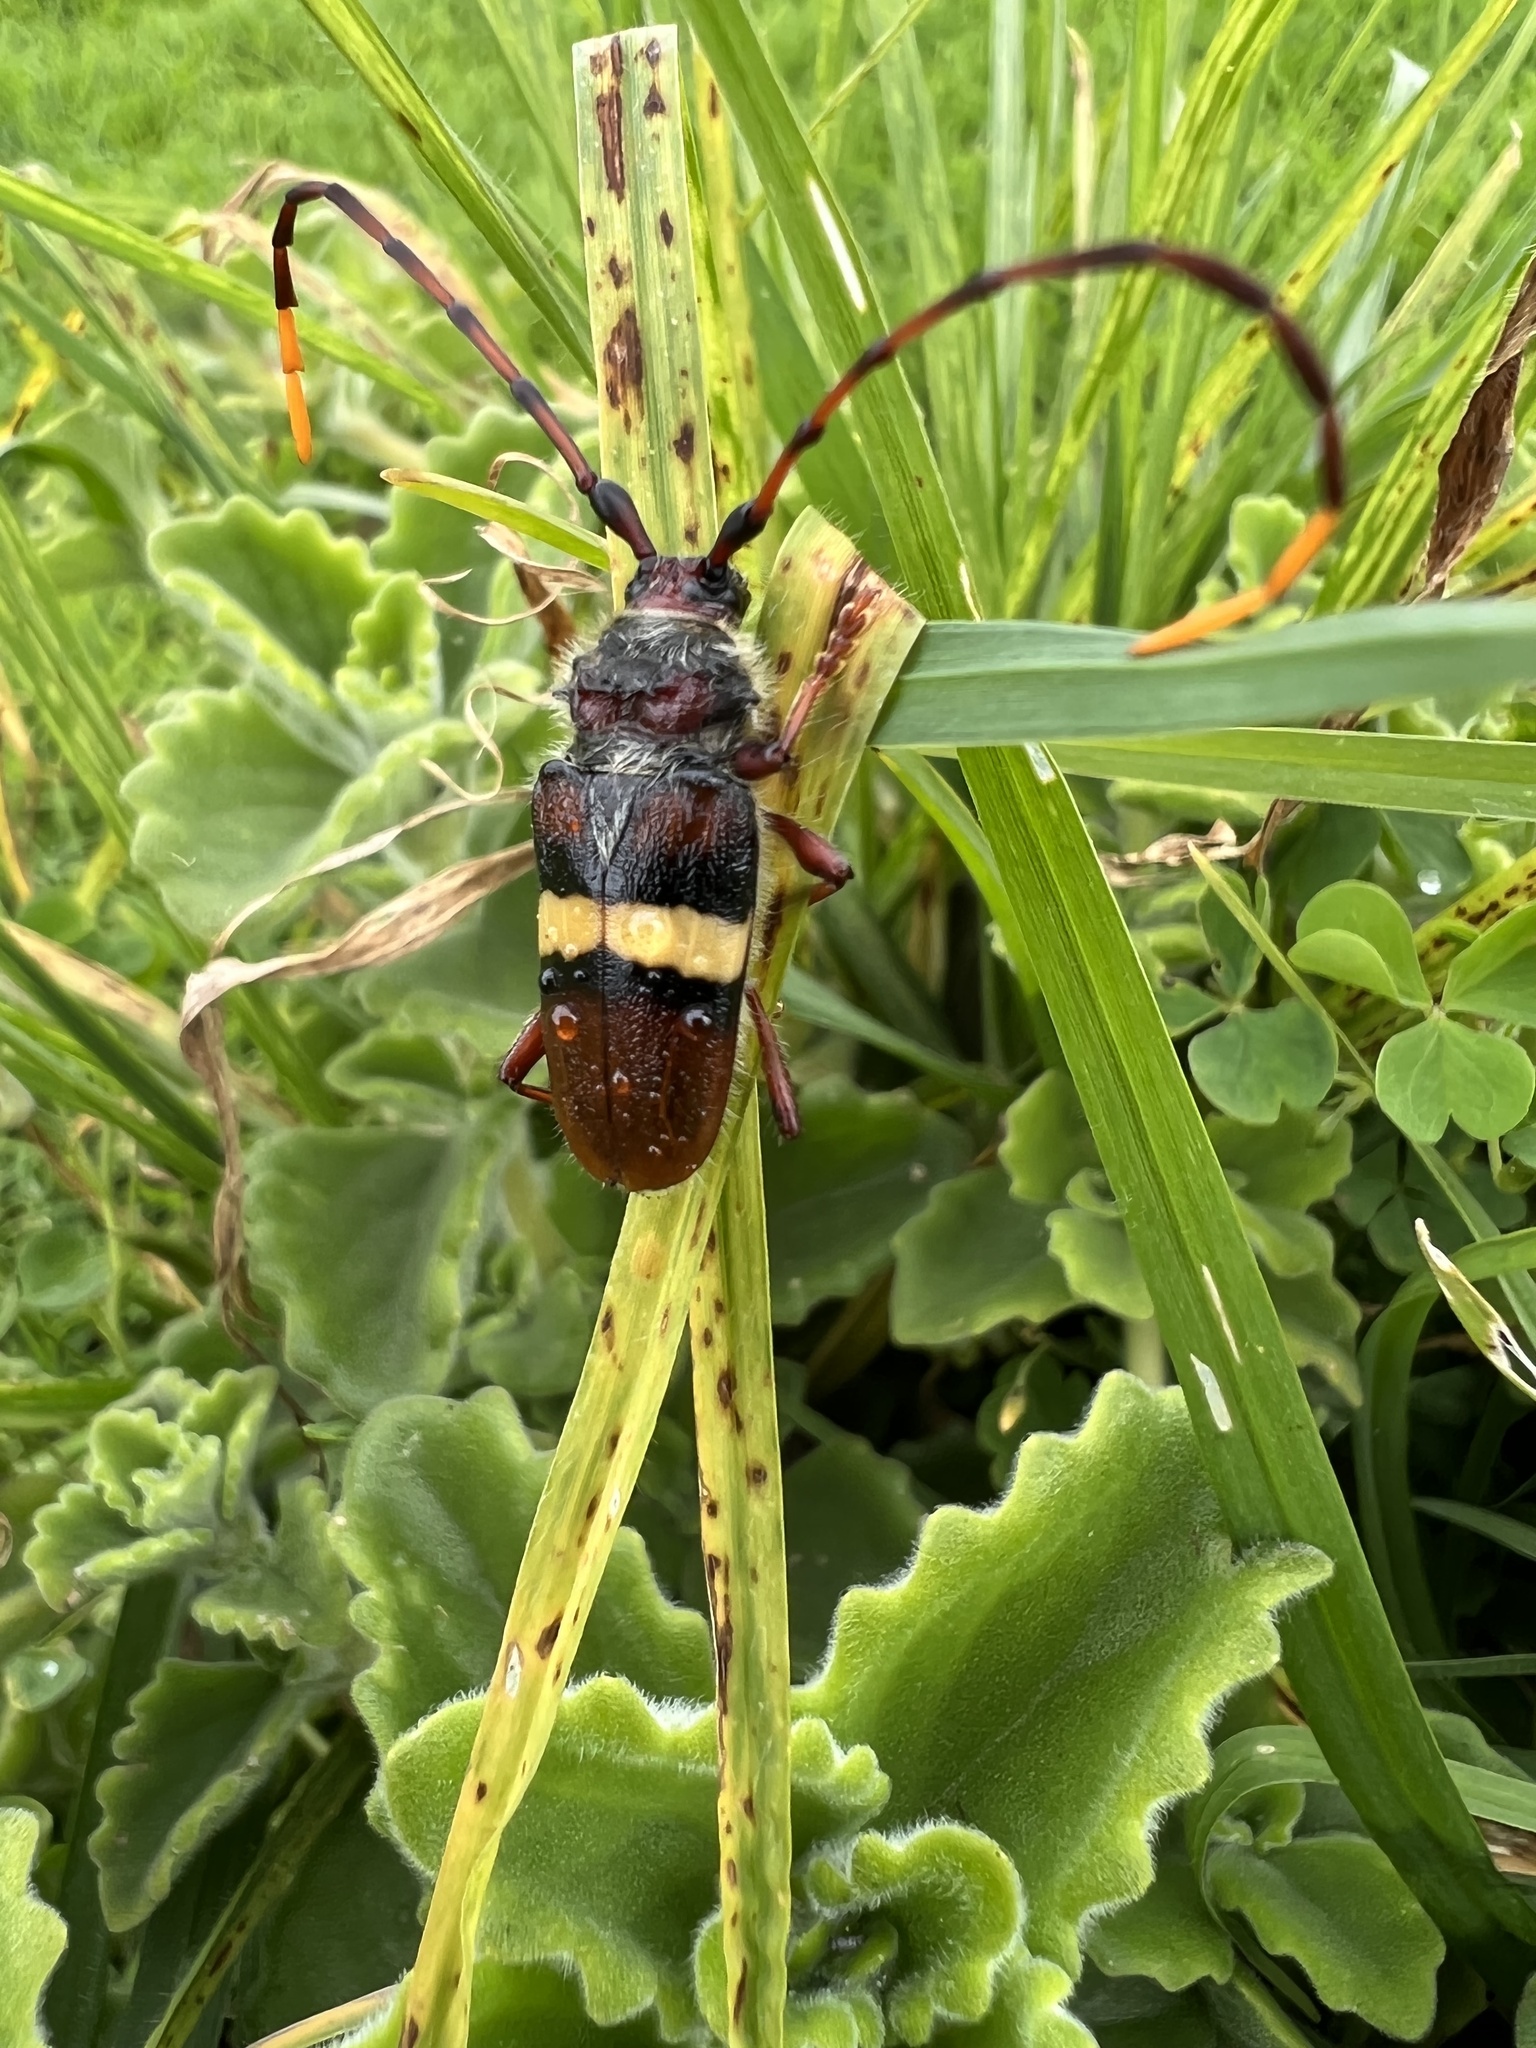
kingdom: Animalia
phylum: Arthropoda
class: Insecta
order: Coleoptera
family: Cerambycidae
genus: Deretrachys
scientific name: Deretrachys juvencus
